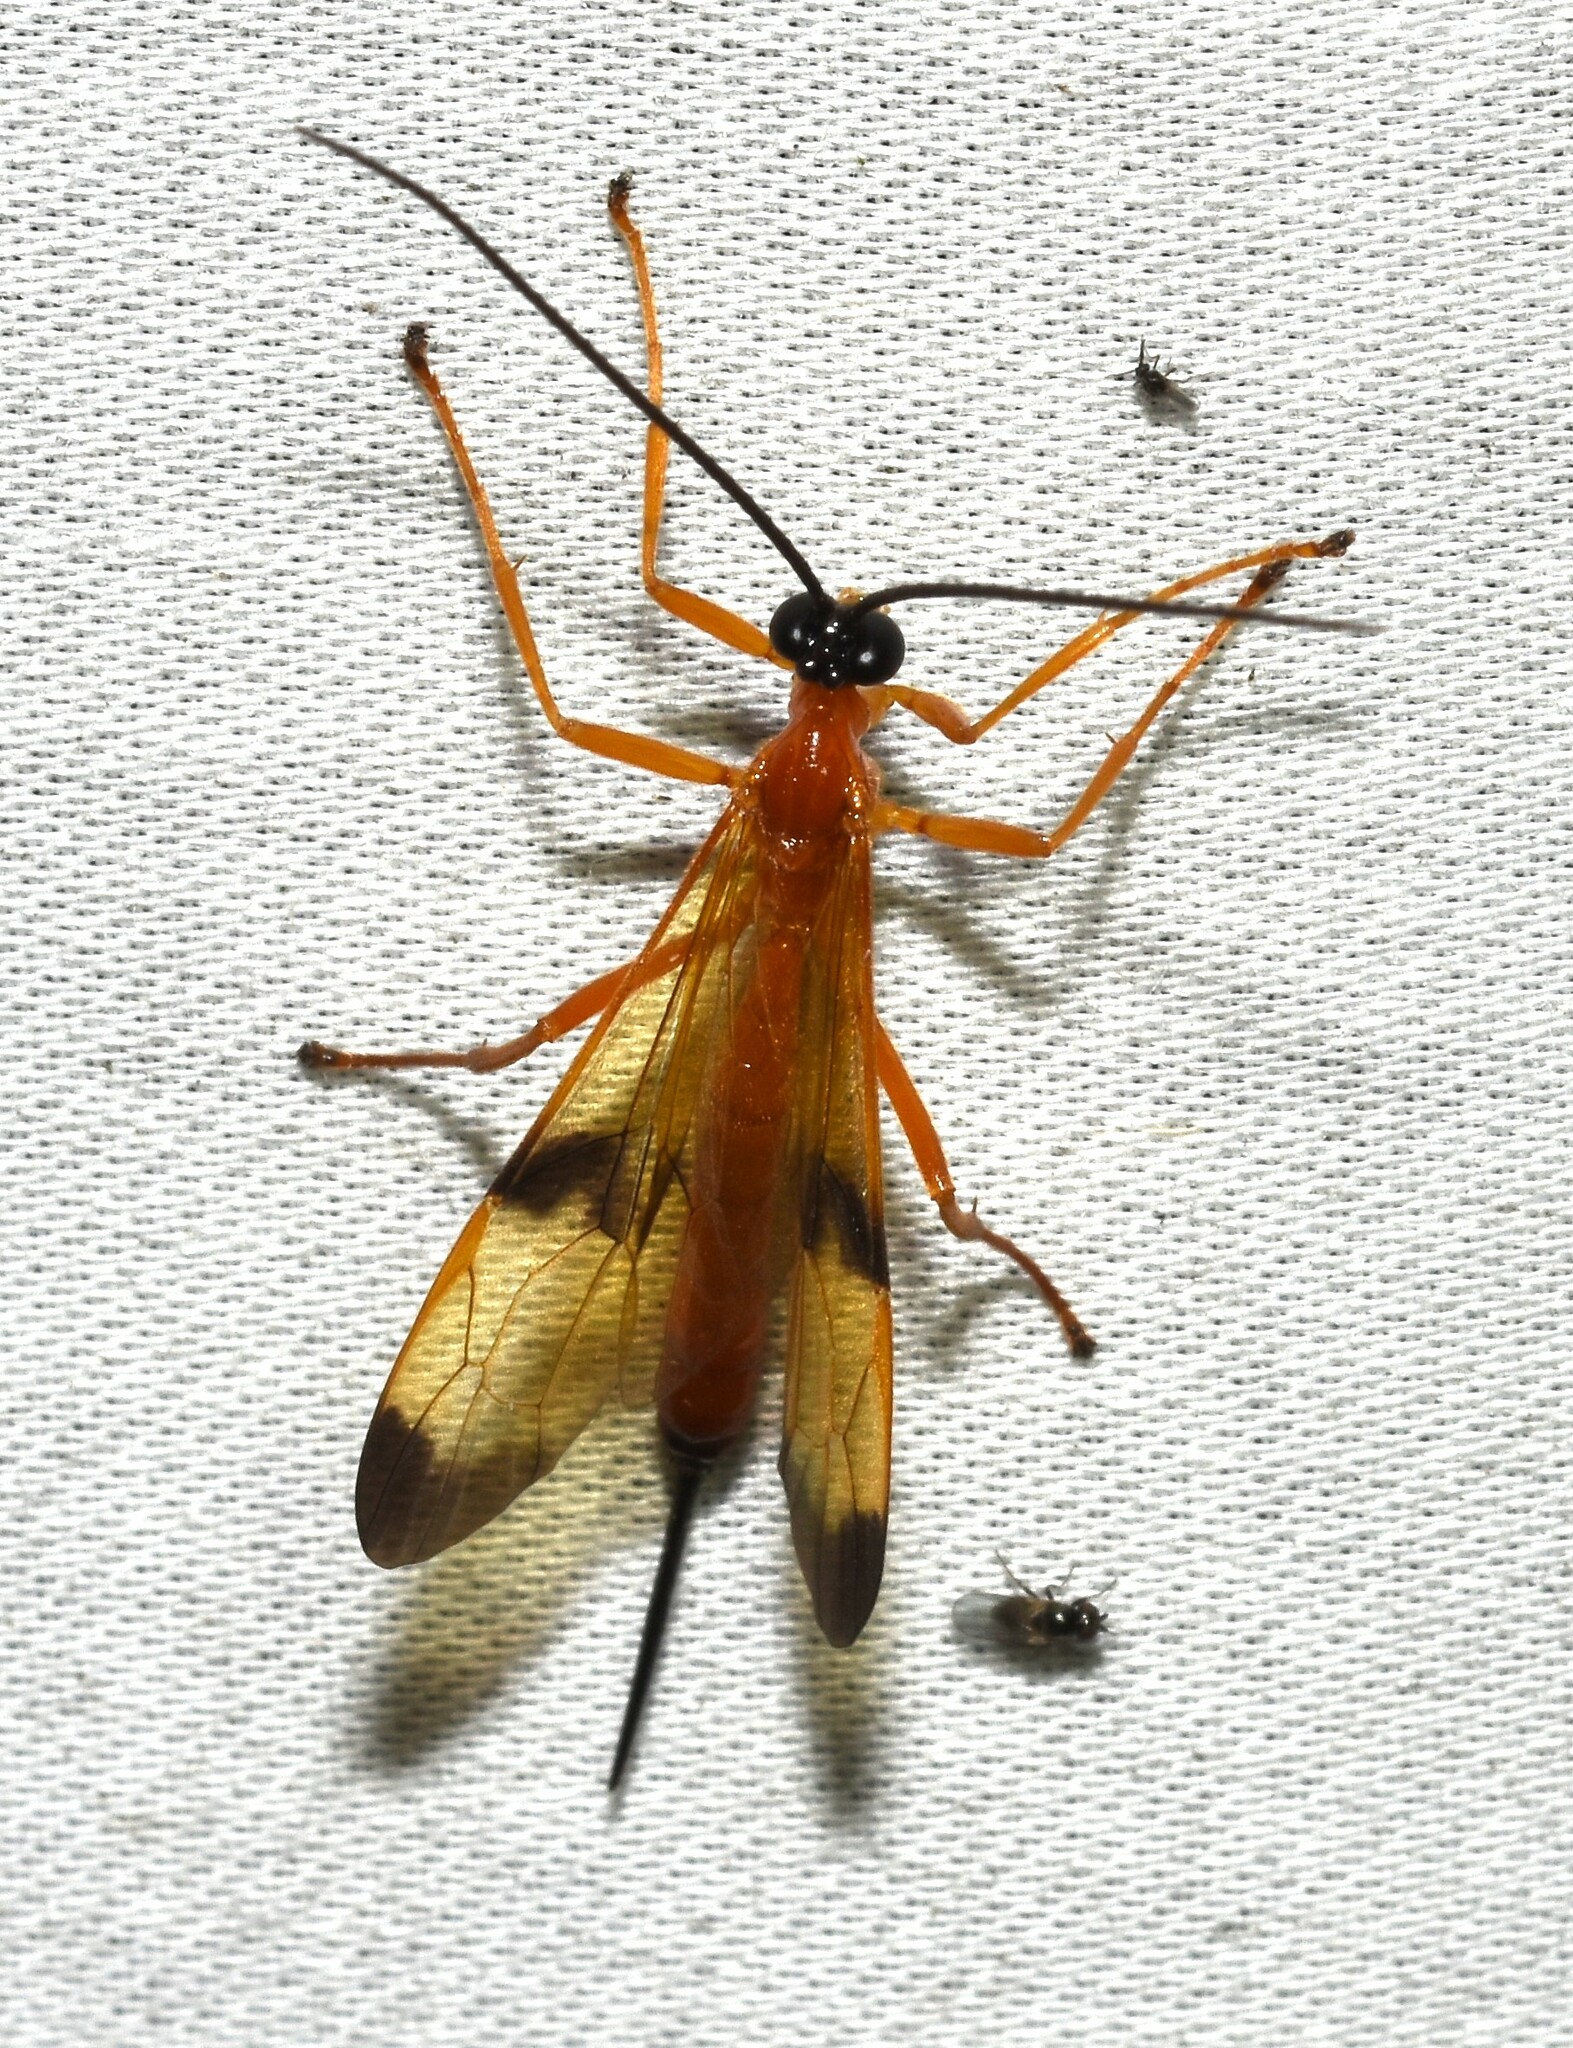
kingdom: Animalia
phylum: Arthropoda
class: Insecta
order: Hymenoptera
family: Ichneumonidae
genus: Acrotaphus
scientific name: Acrotaphus wiltii
